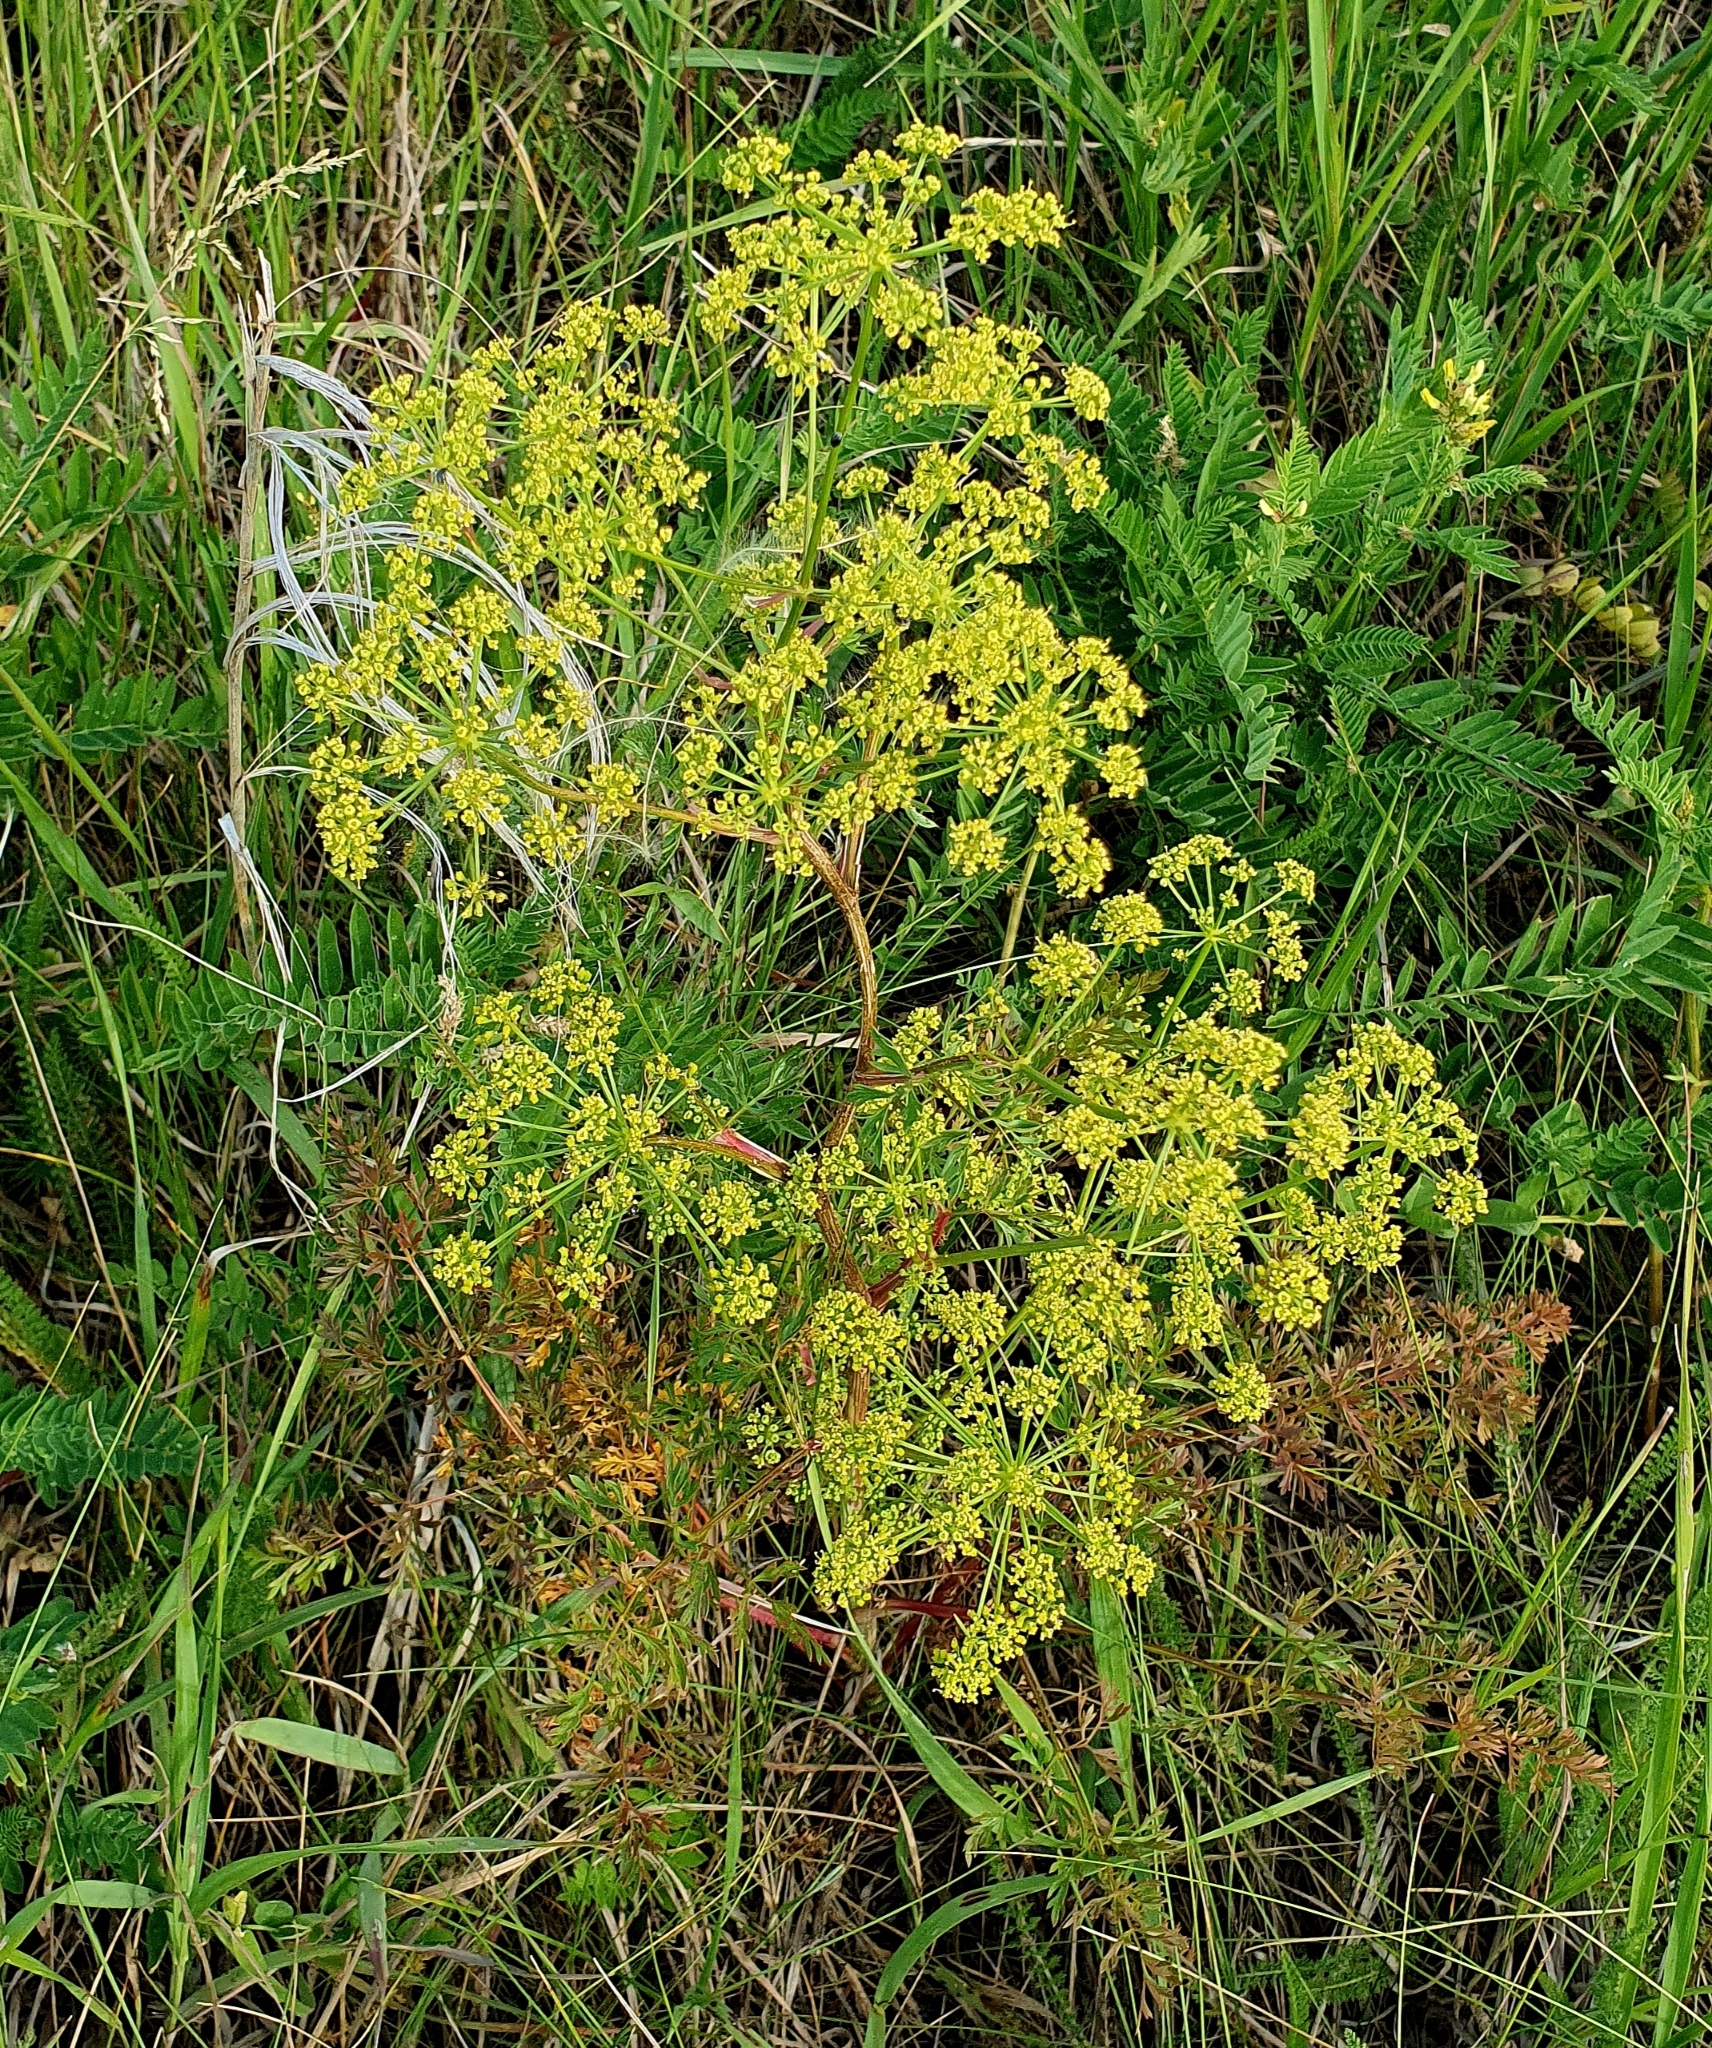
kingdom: Plantae
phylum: Tracheophyta
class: Magnoliopsida
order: Apiales
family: Apiaceae
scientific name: Apiaceae
